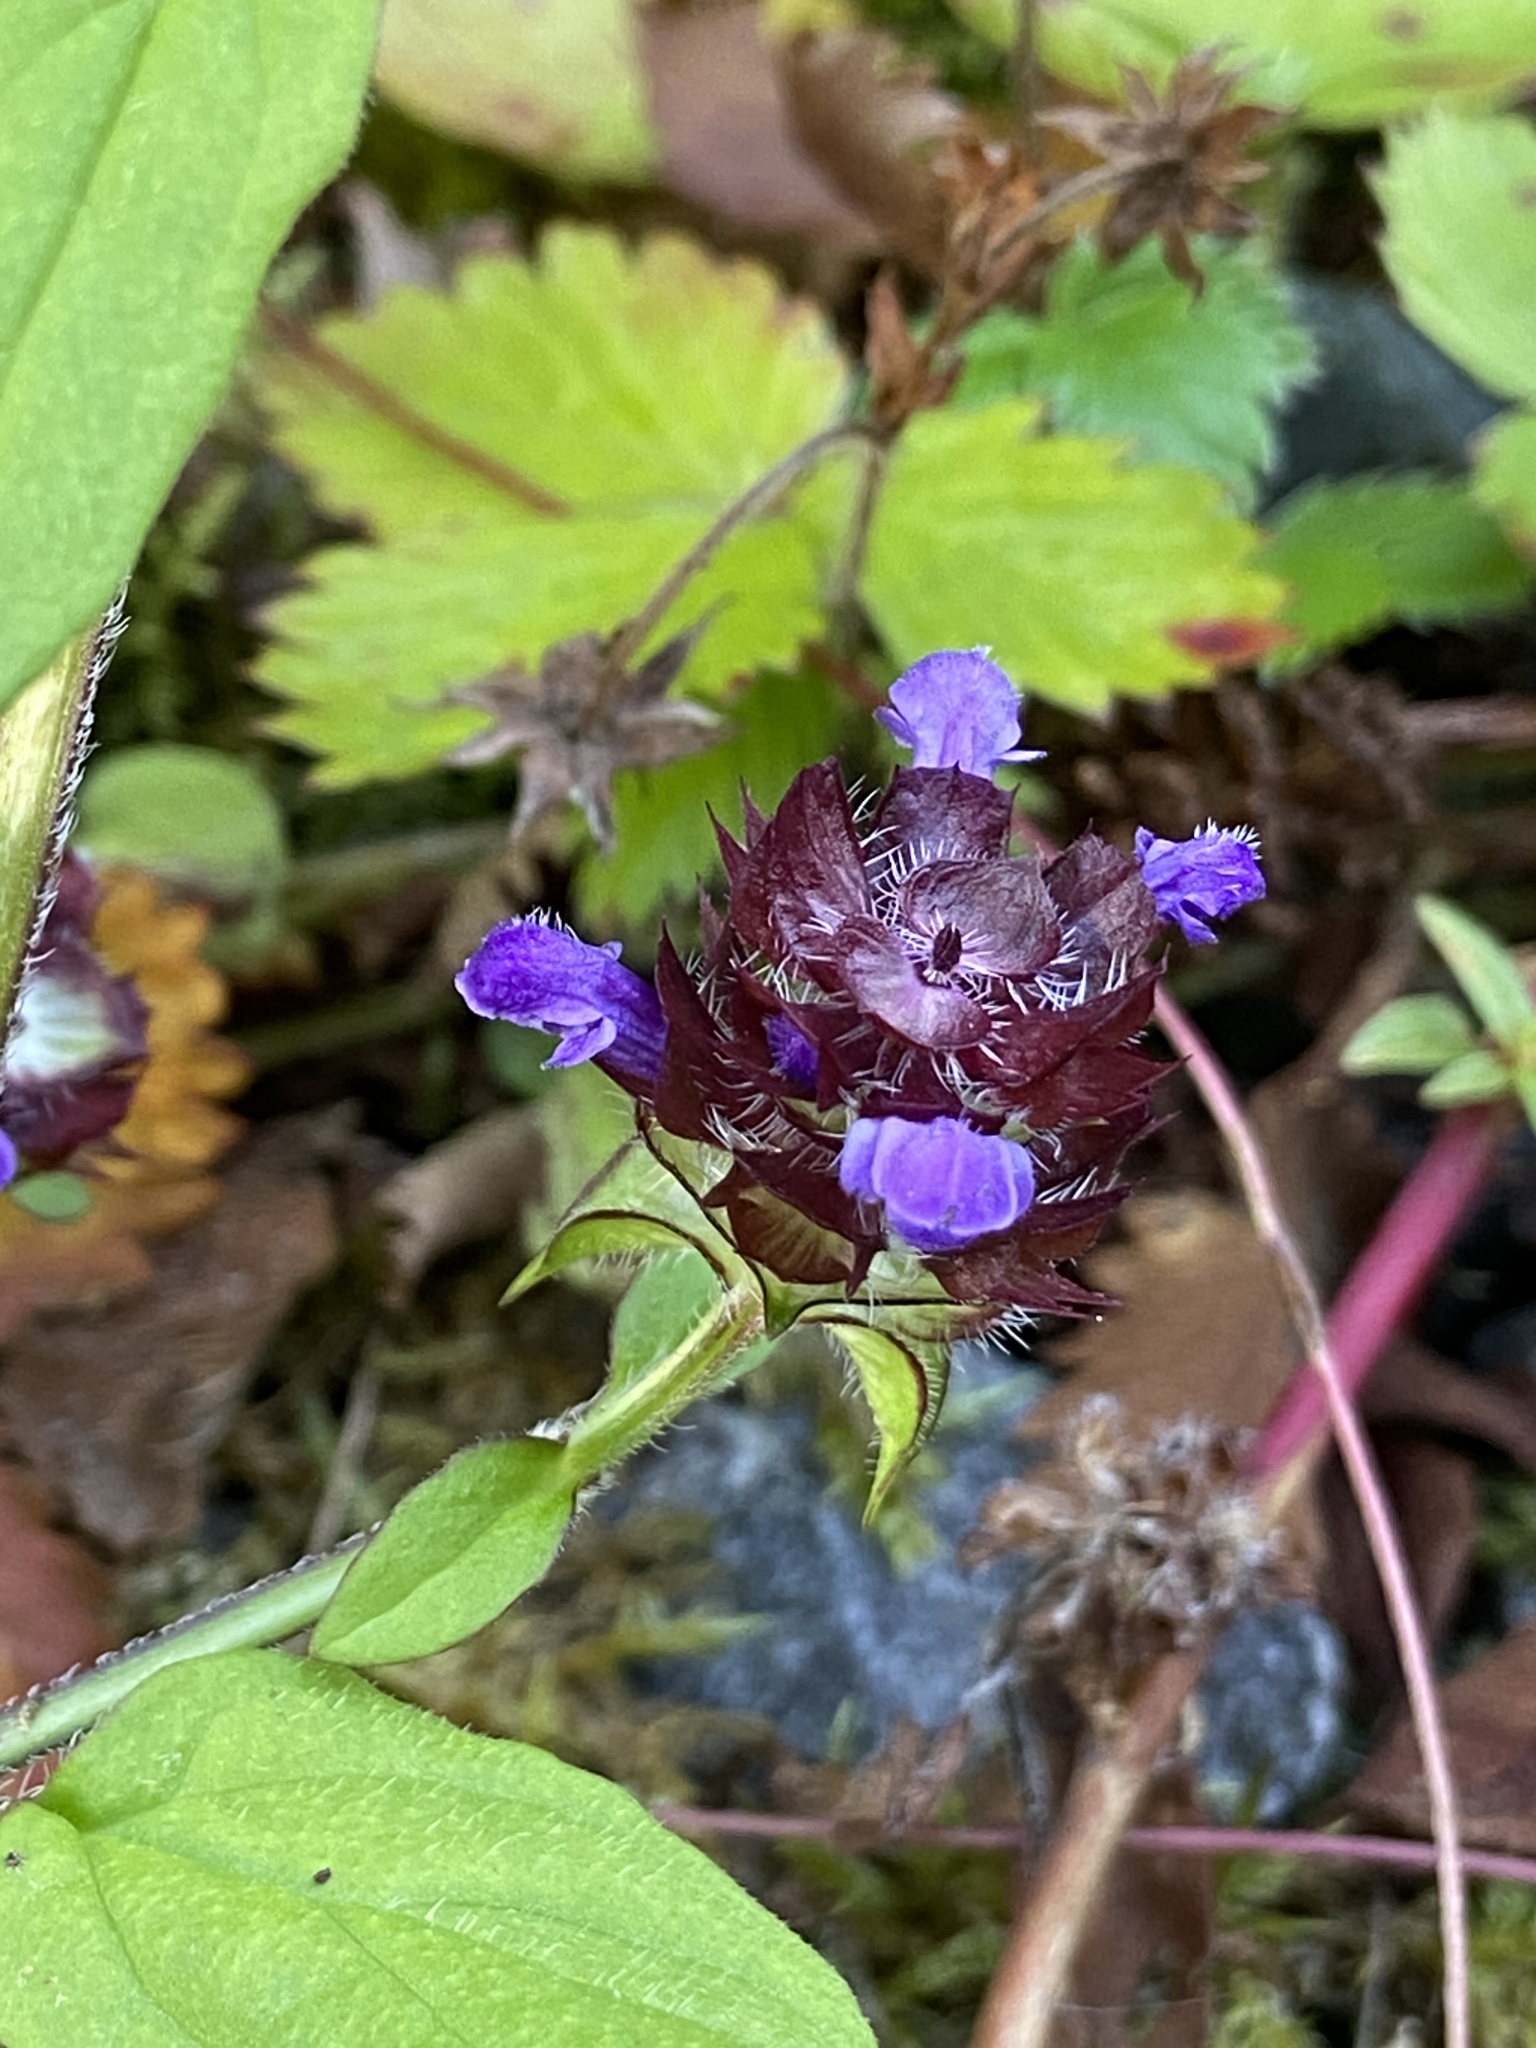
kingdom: Plantae
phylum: Tracheophyta
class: Magnoliopsida
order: Lamiales
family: Lamiaceae
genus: Prunella
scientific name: Prunella vulgaris
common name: Heal-all
